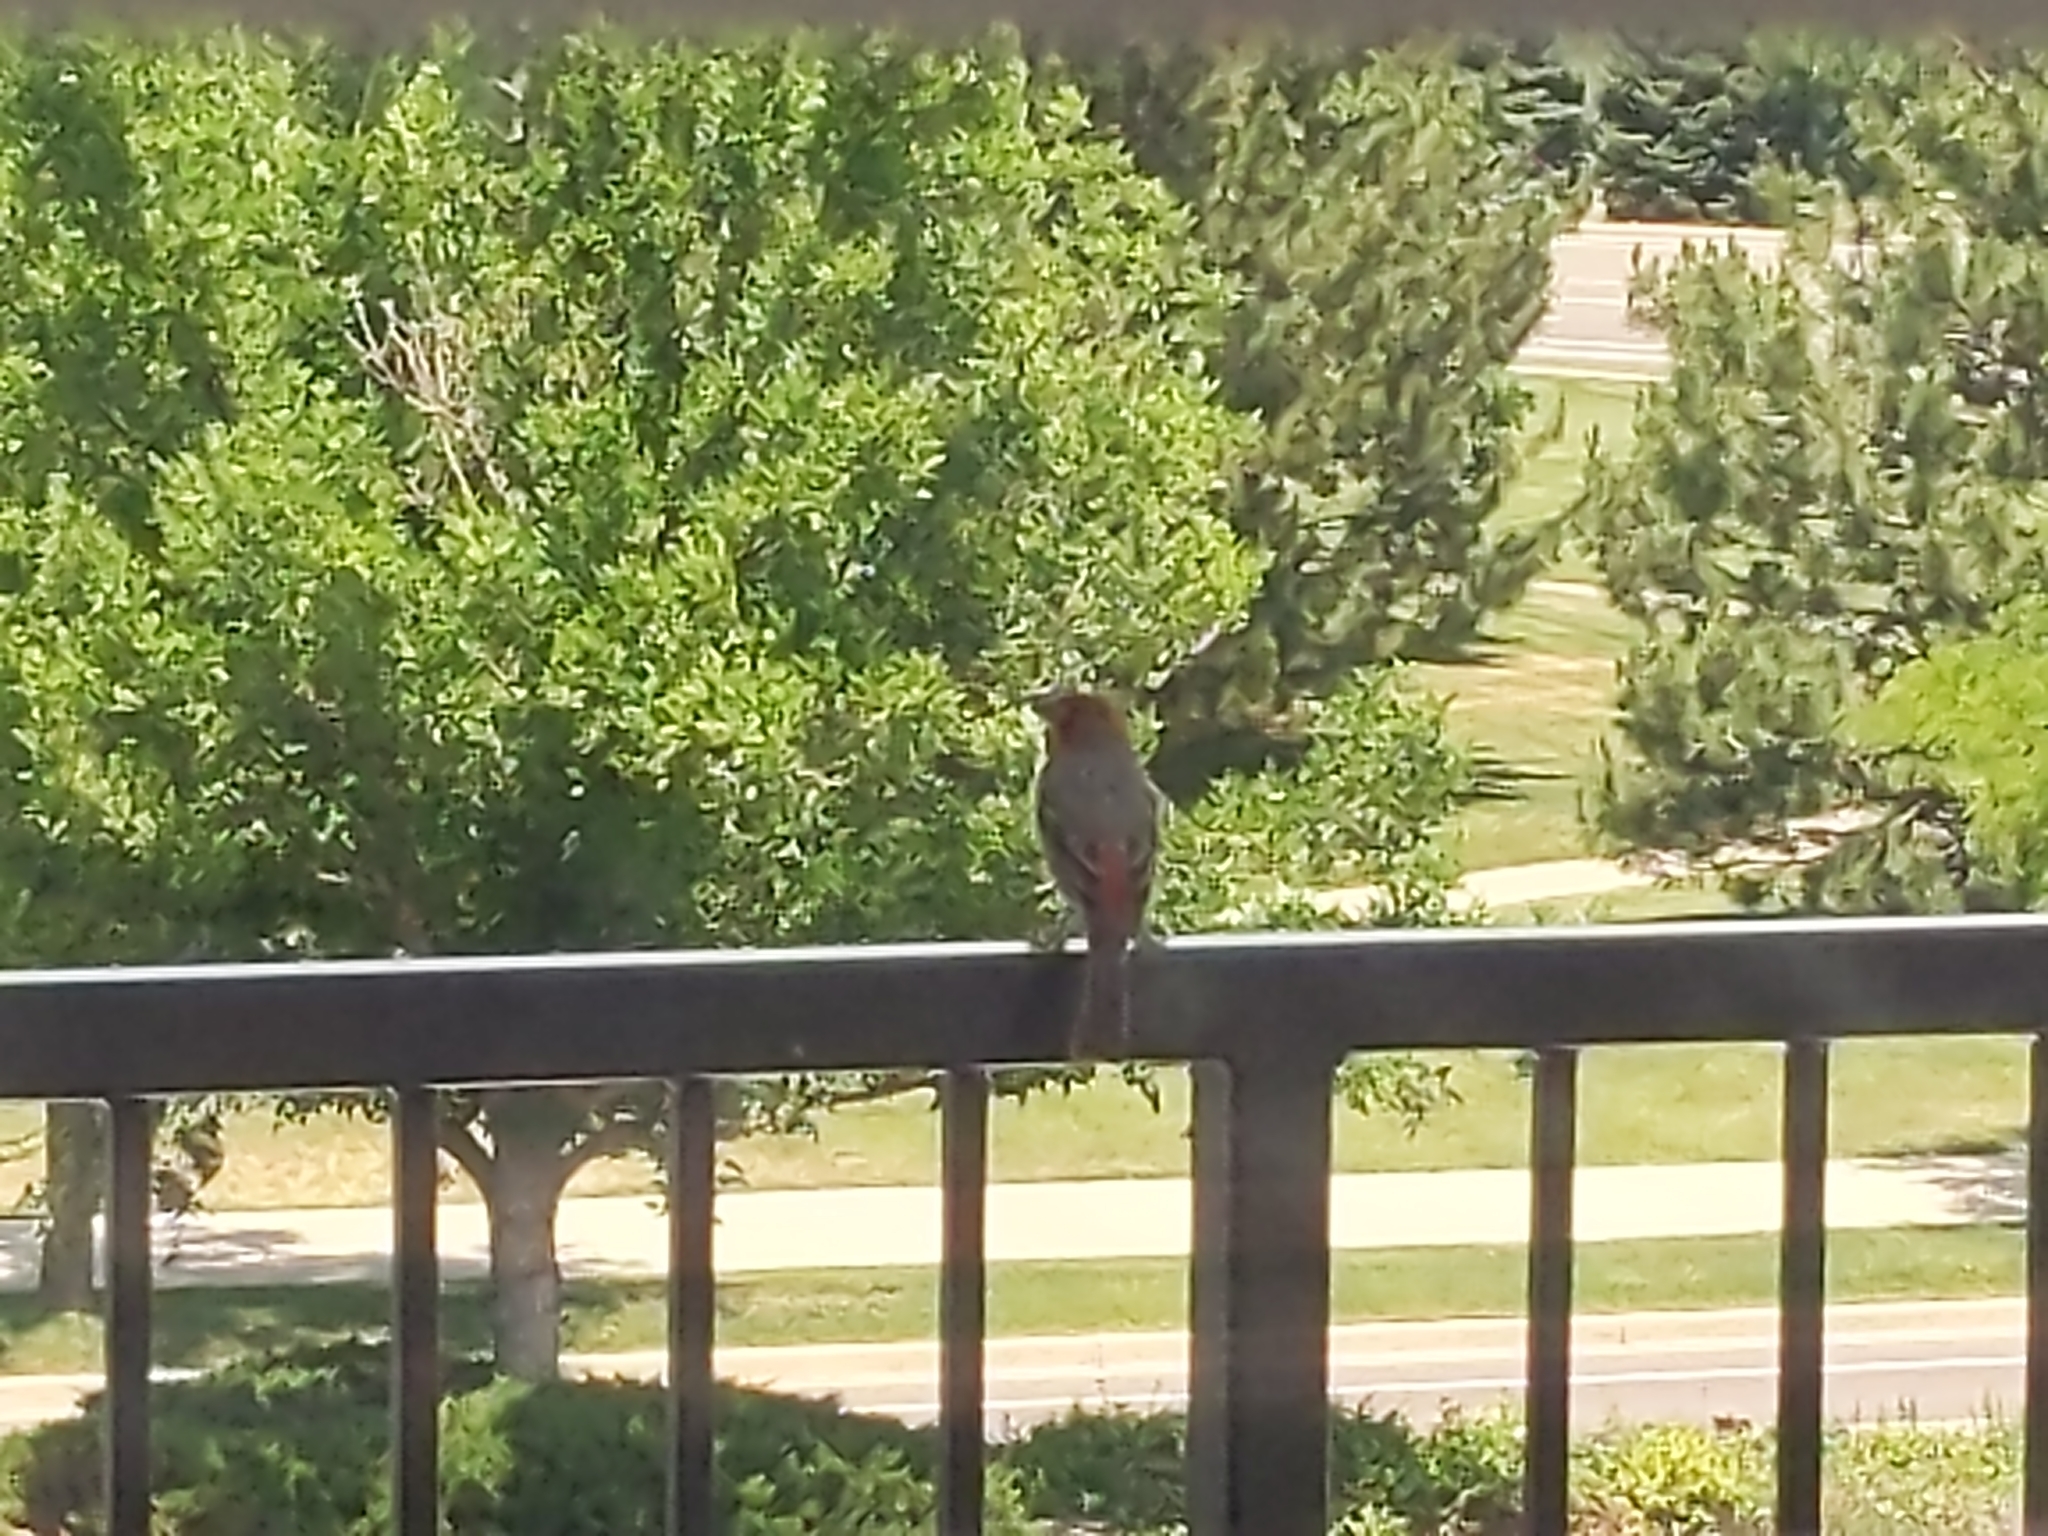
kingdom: Animalia
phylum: Chordata
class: Aves
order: Passeriformes
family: Fringillidae
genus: Haemorhous
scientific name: Haemorhous mexicanus
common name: House finch
